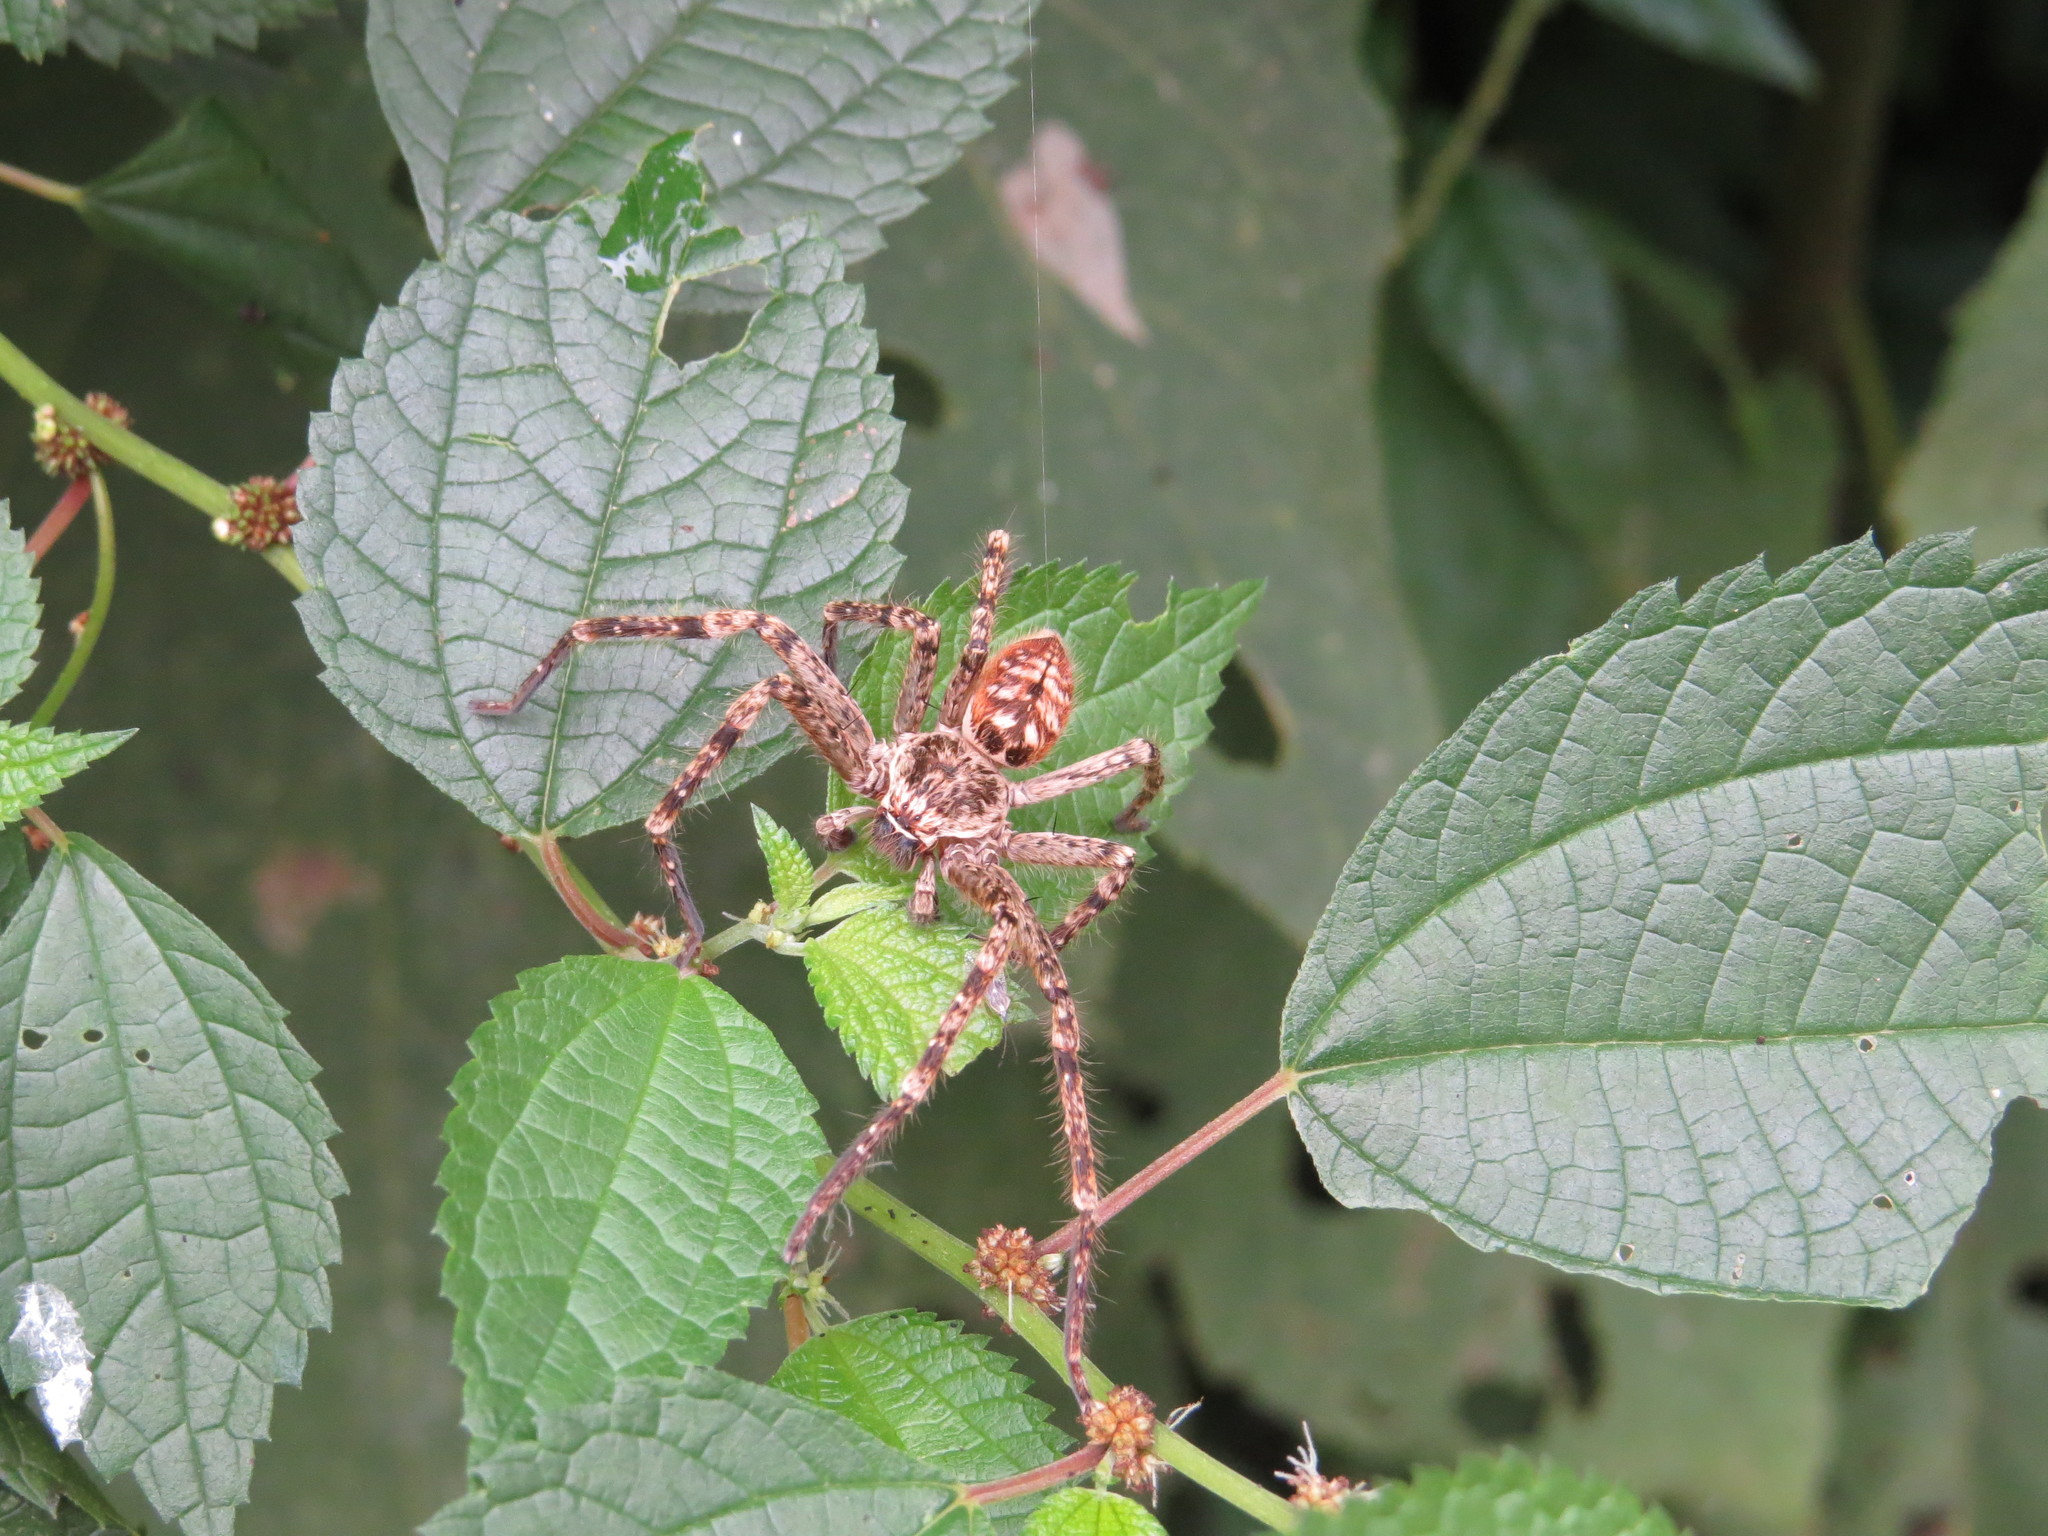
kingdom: Animalia
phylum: Arthropoda
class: Arachnida
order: Araneae
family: Sparassidae
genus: Polybetes
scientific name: Polybetes rapidus
